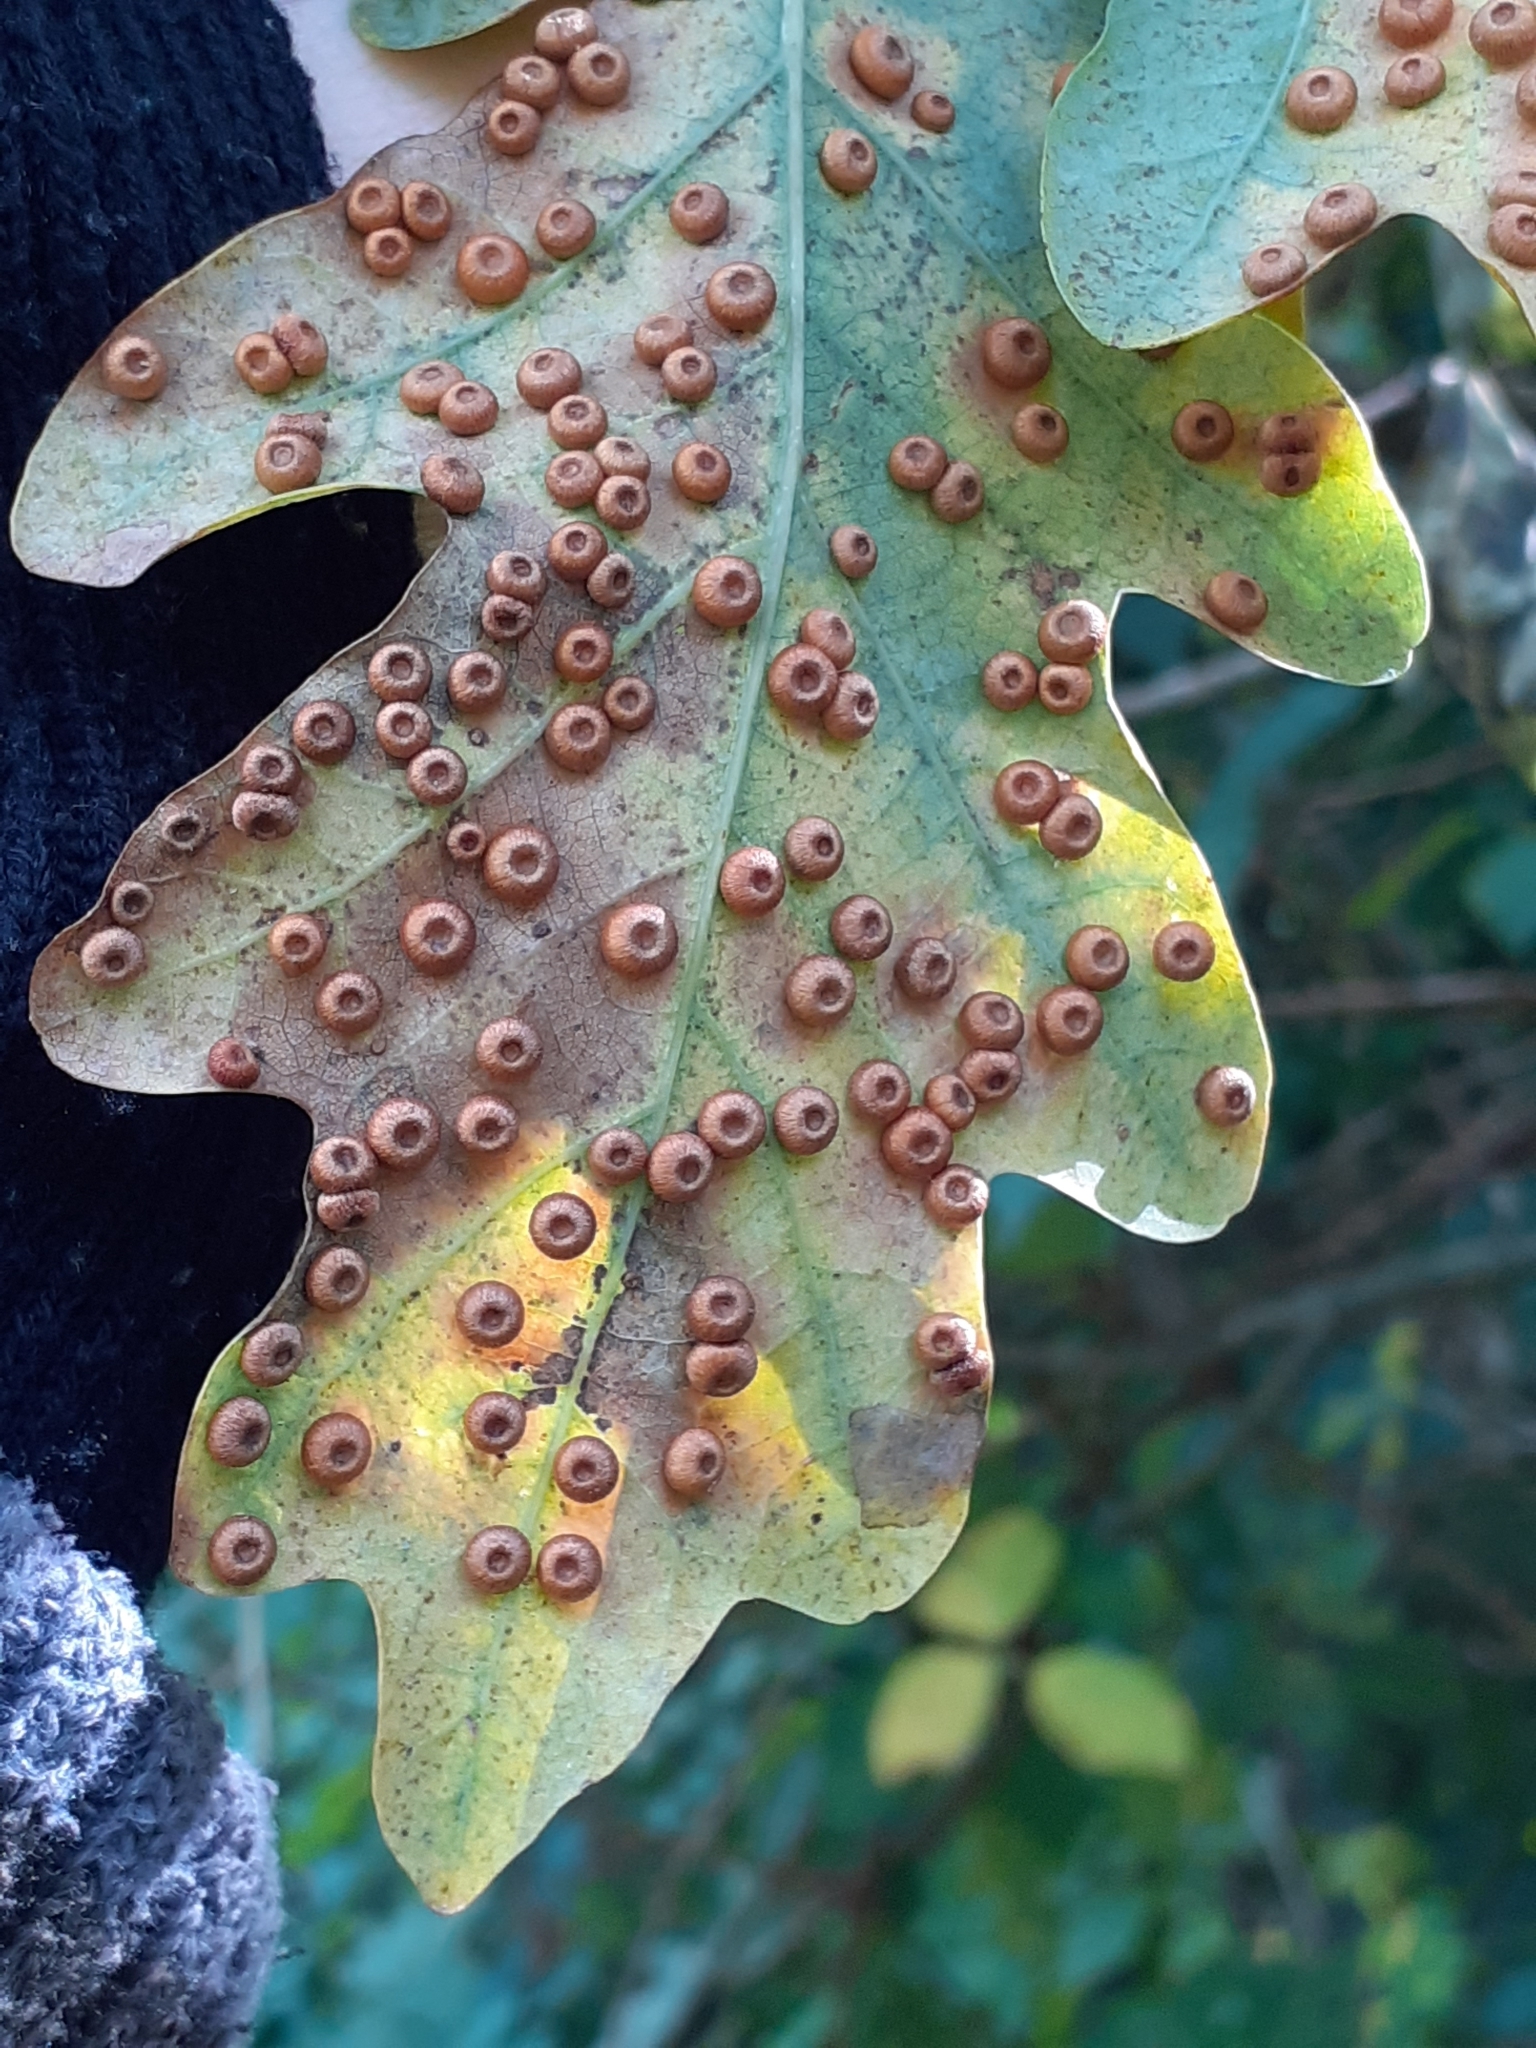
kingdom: Animalia
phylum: Arthropoda
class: Insecta
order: Hymenoptera
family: Cynipidae
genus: Neuroterus
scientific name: Neuroterus numismalis
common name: Silk-button spangle gall
